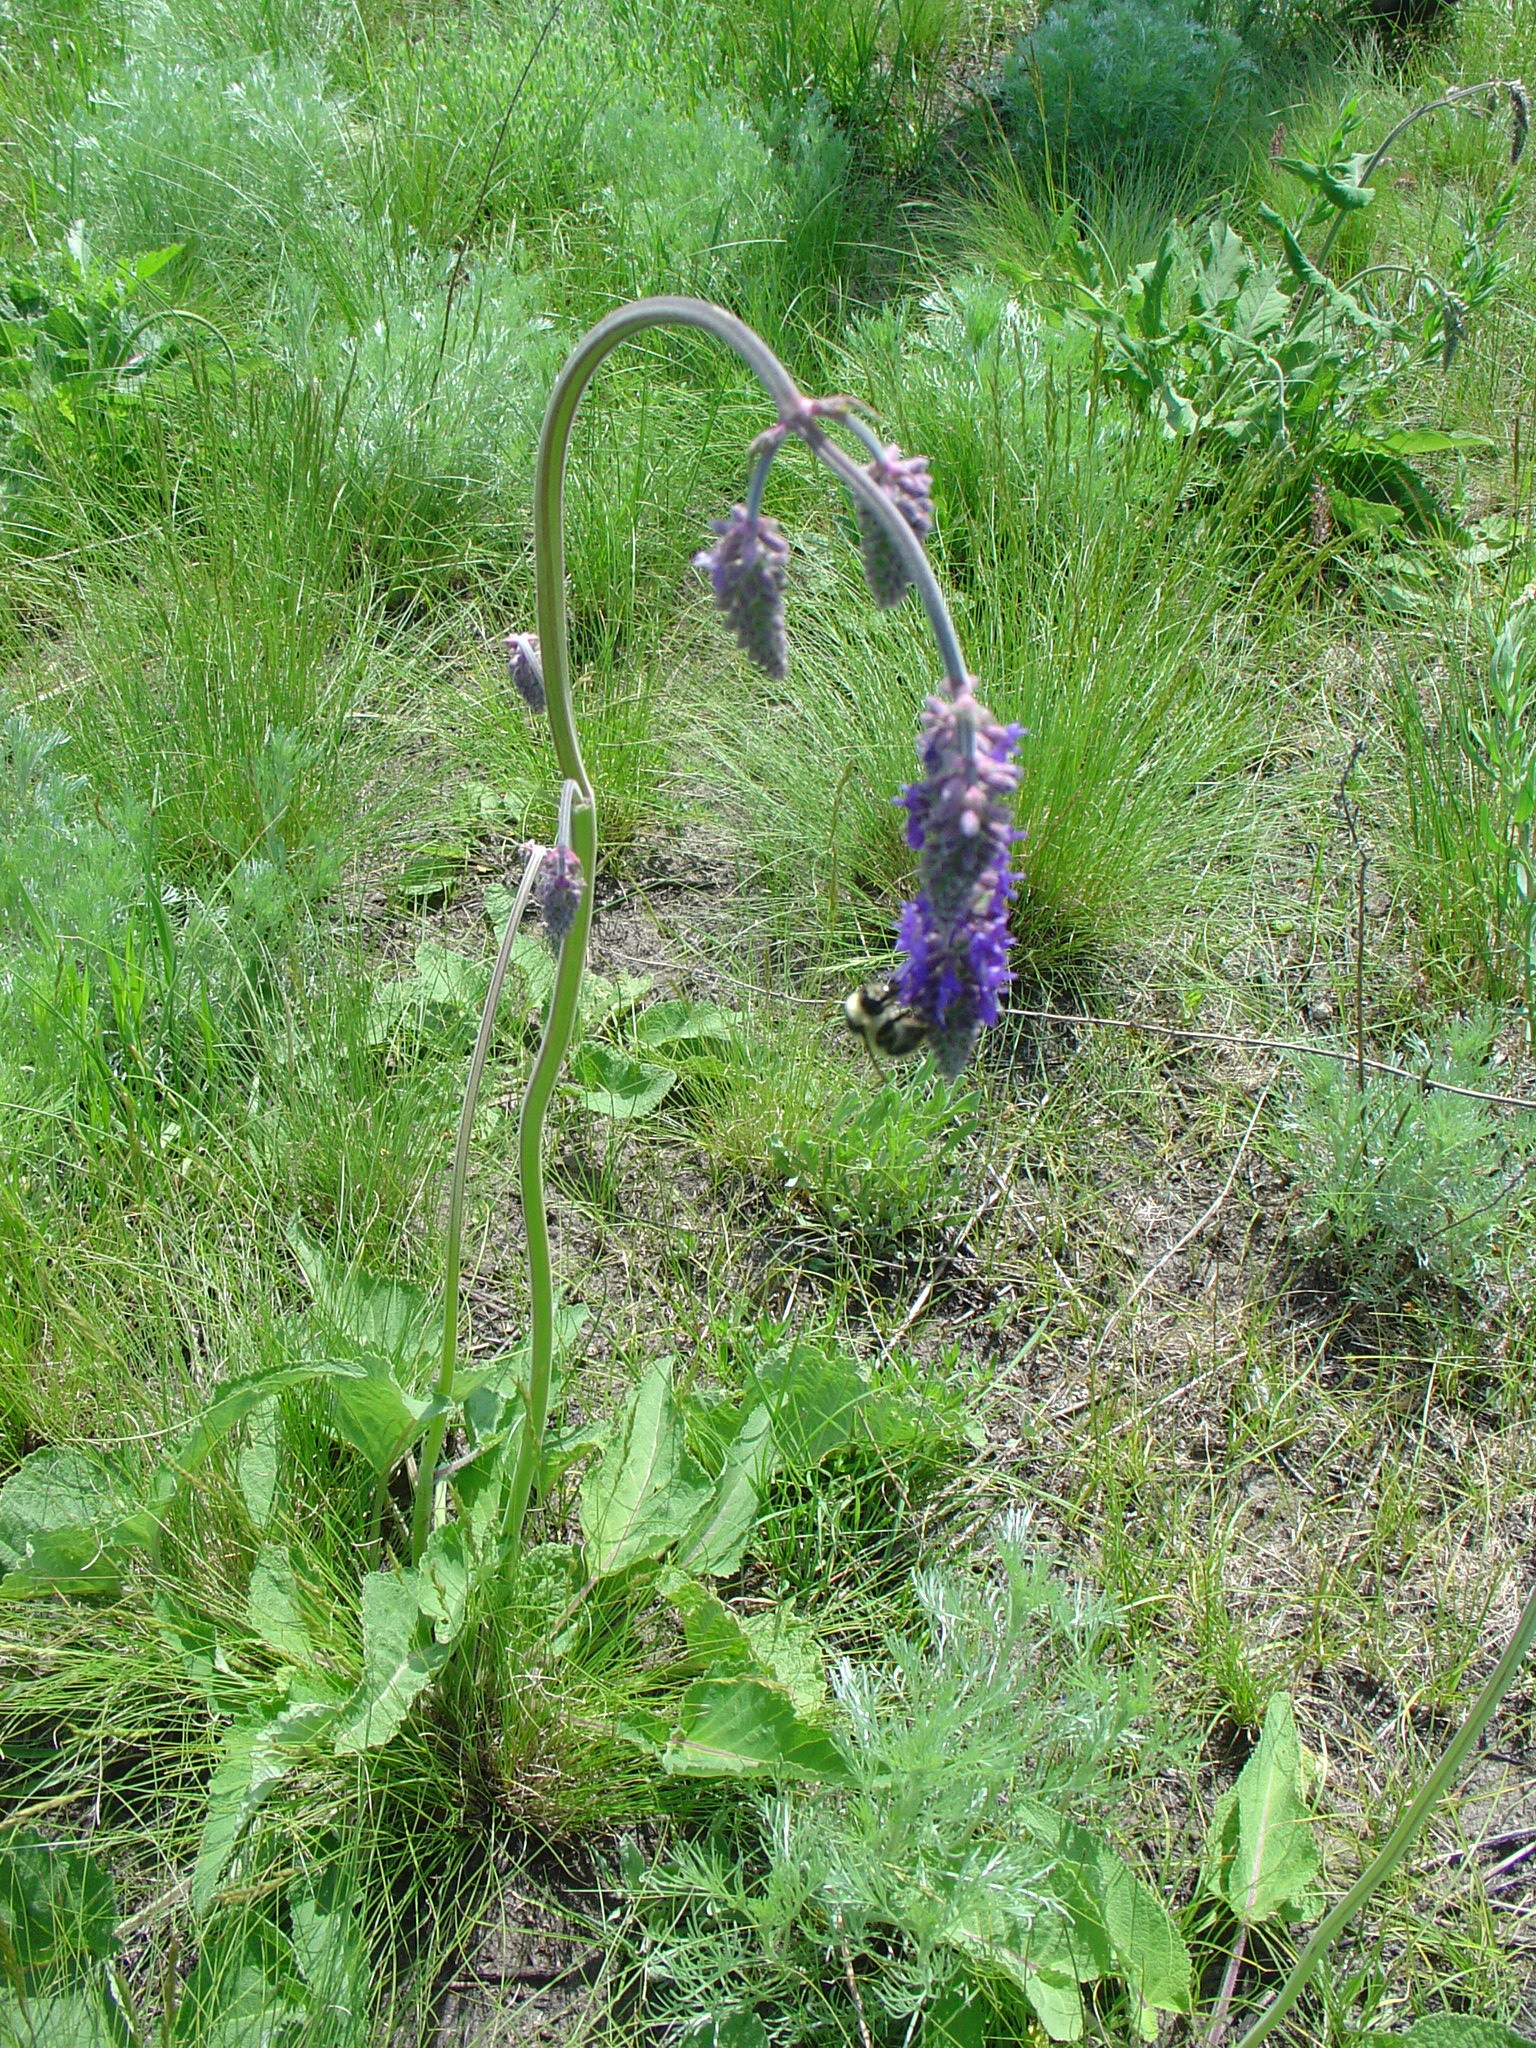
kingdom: Plantae
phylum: Tracheophyta
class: Magnoliopsida
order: Lamiales
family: Lamiaceae
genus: Salvia
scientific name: Salvia nutans
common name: Nodding sage
